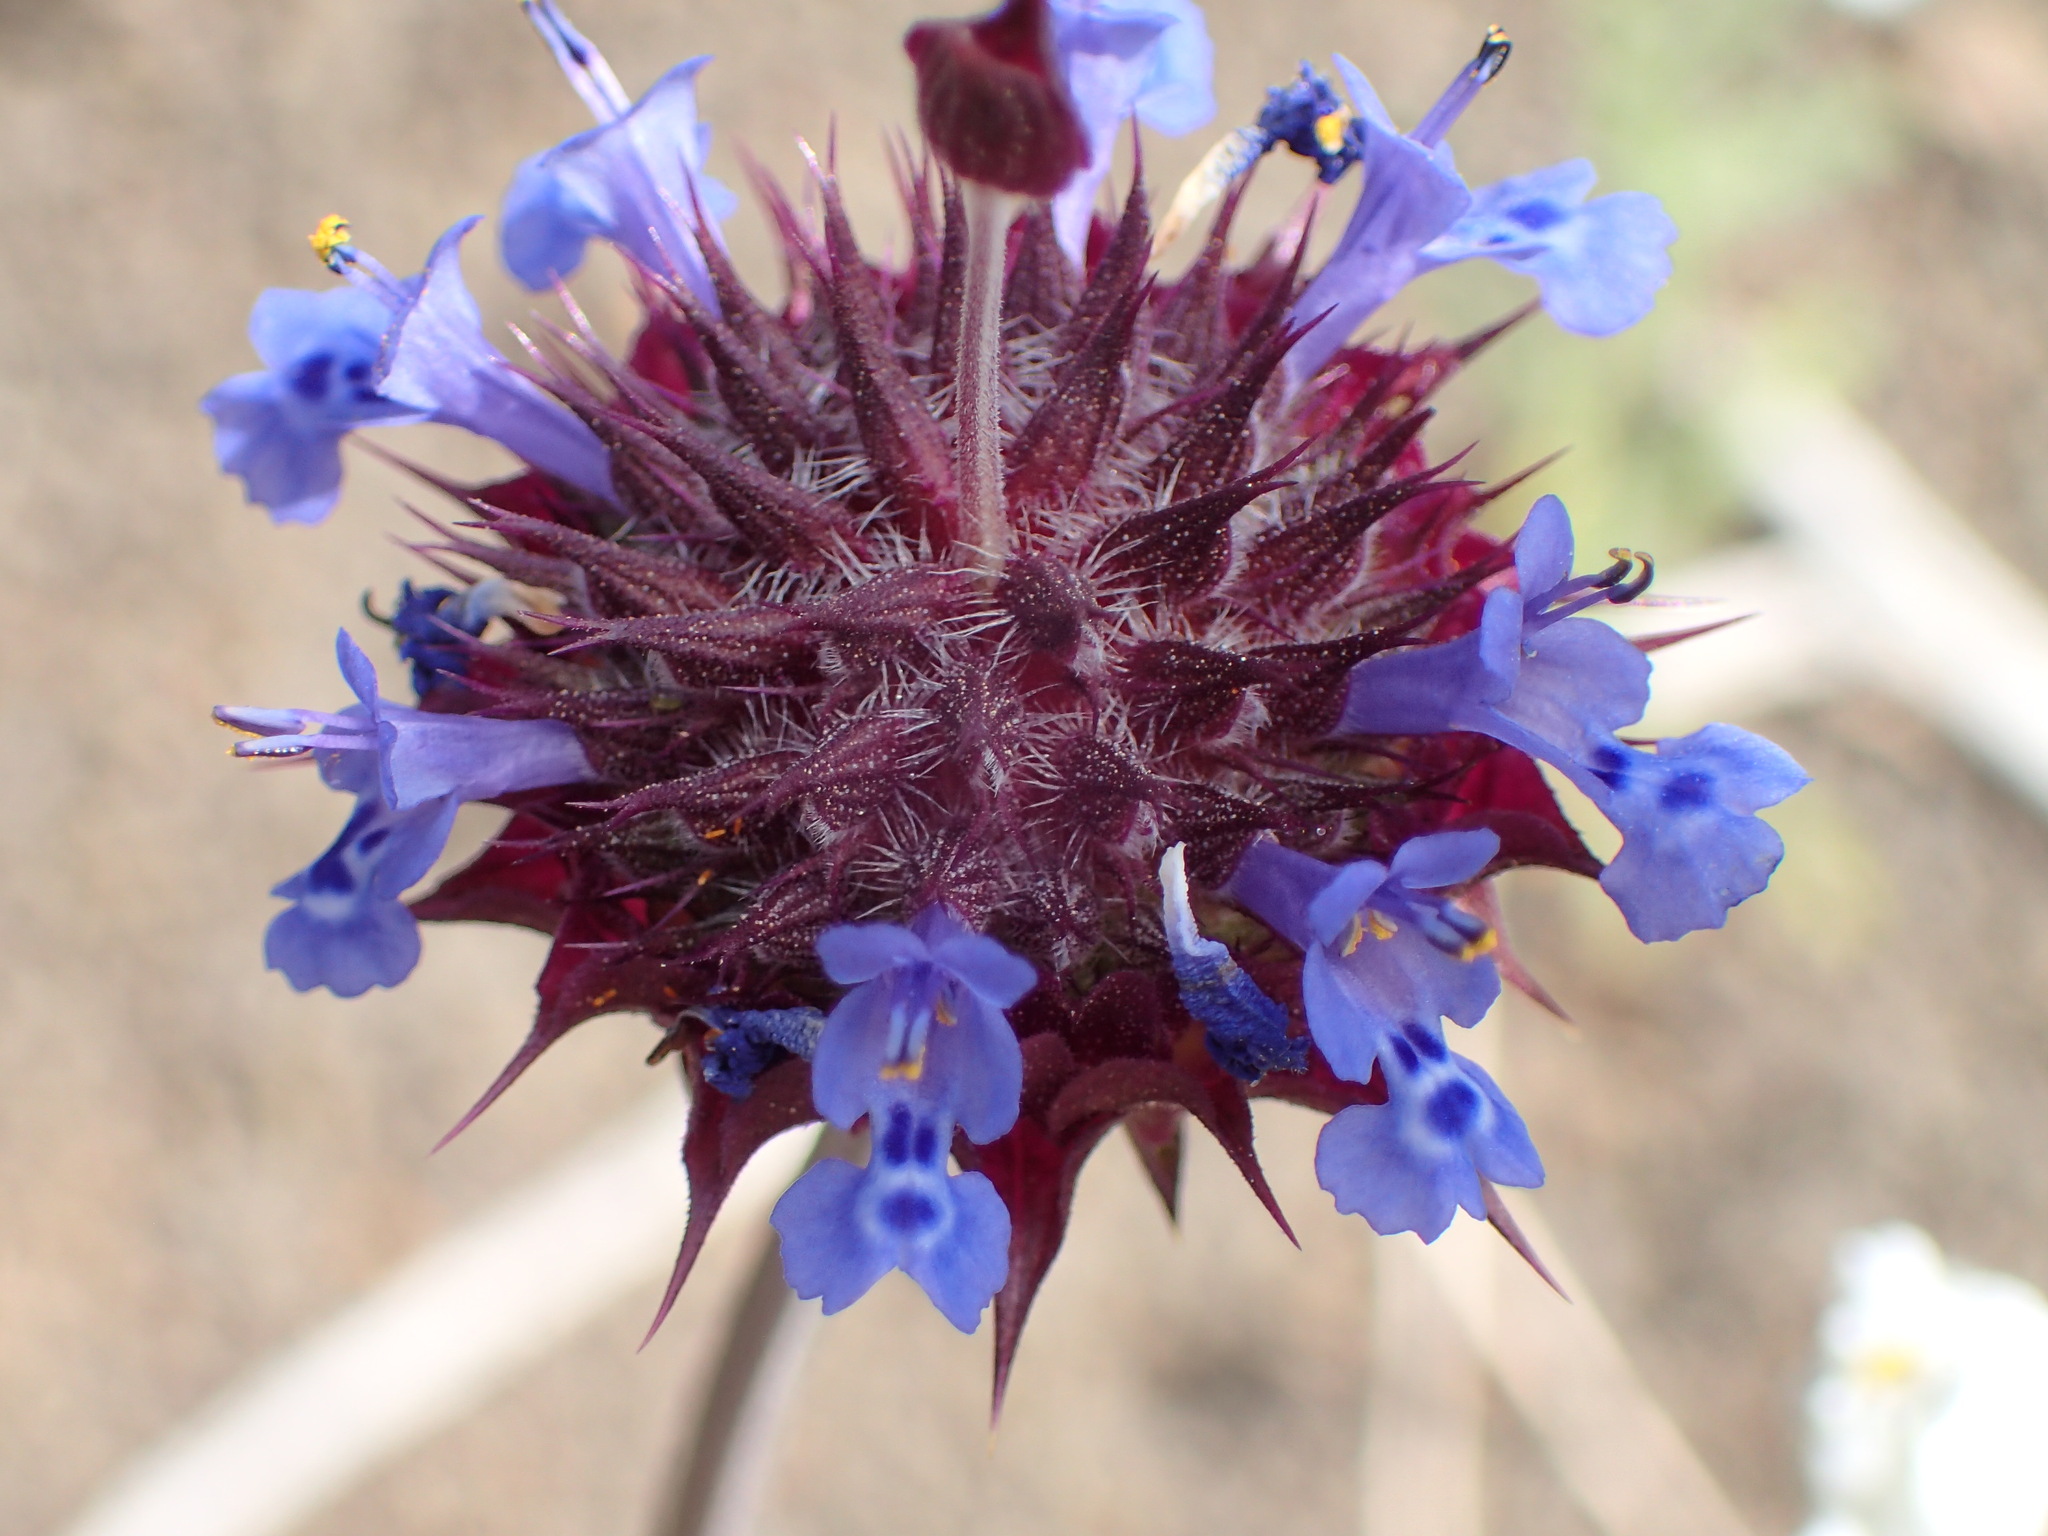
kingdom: Plantae
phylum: Tracheophyta
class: Magnoliopsida
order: Lamiales
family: Lamiaceae
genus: Salvia
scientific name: Salvia columbariae
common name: Chia
